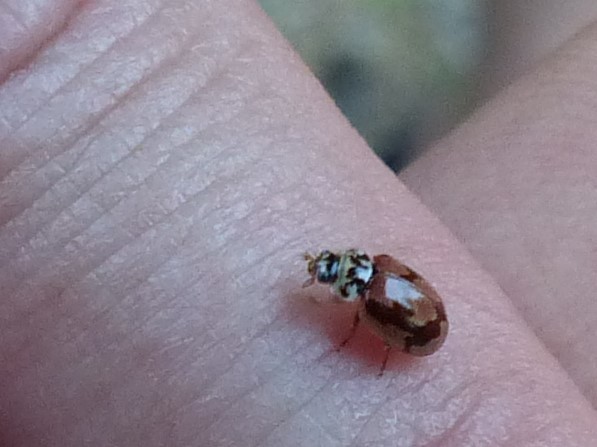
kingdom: Animalia
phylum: Arthropoda
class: Insecta
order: Coleoptera
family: Coccinellidae
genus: Mulsantina
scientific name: Mulsantina picta
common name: Painted ladybird
